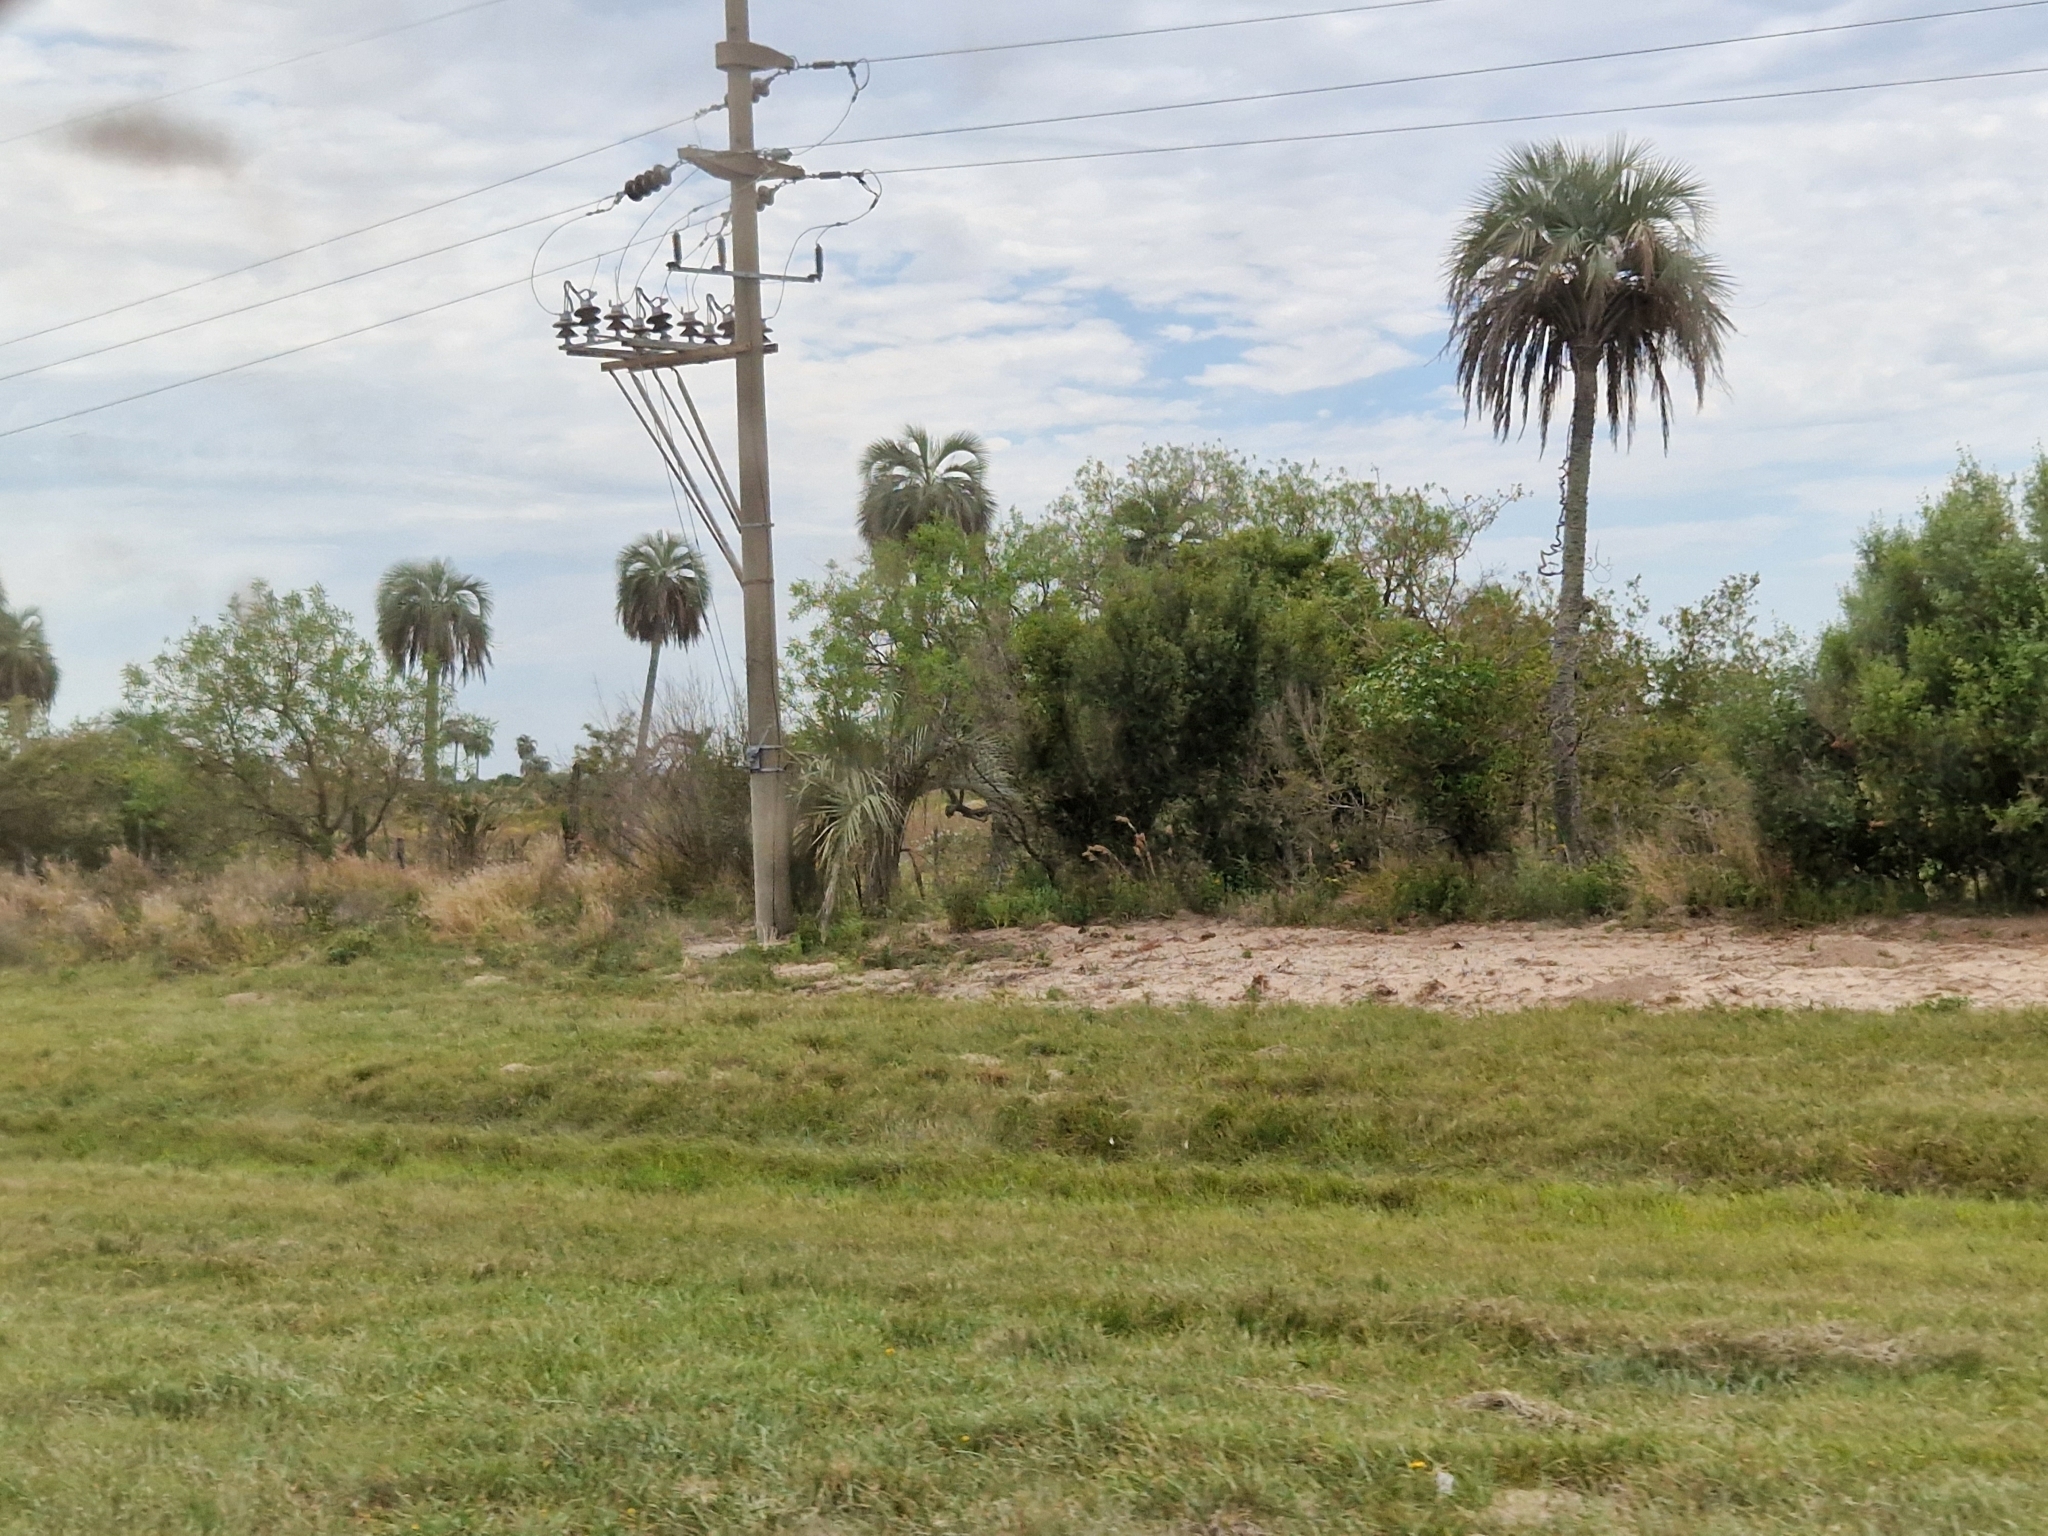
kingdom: Plantae
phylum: Tracheophyta
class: Liliopsida
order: Arecales
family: Arecaceae
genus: Butia
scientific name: Butia yatay
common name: Yatay palm
